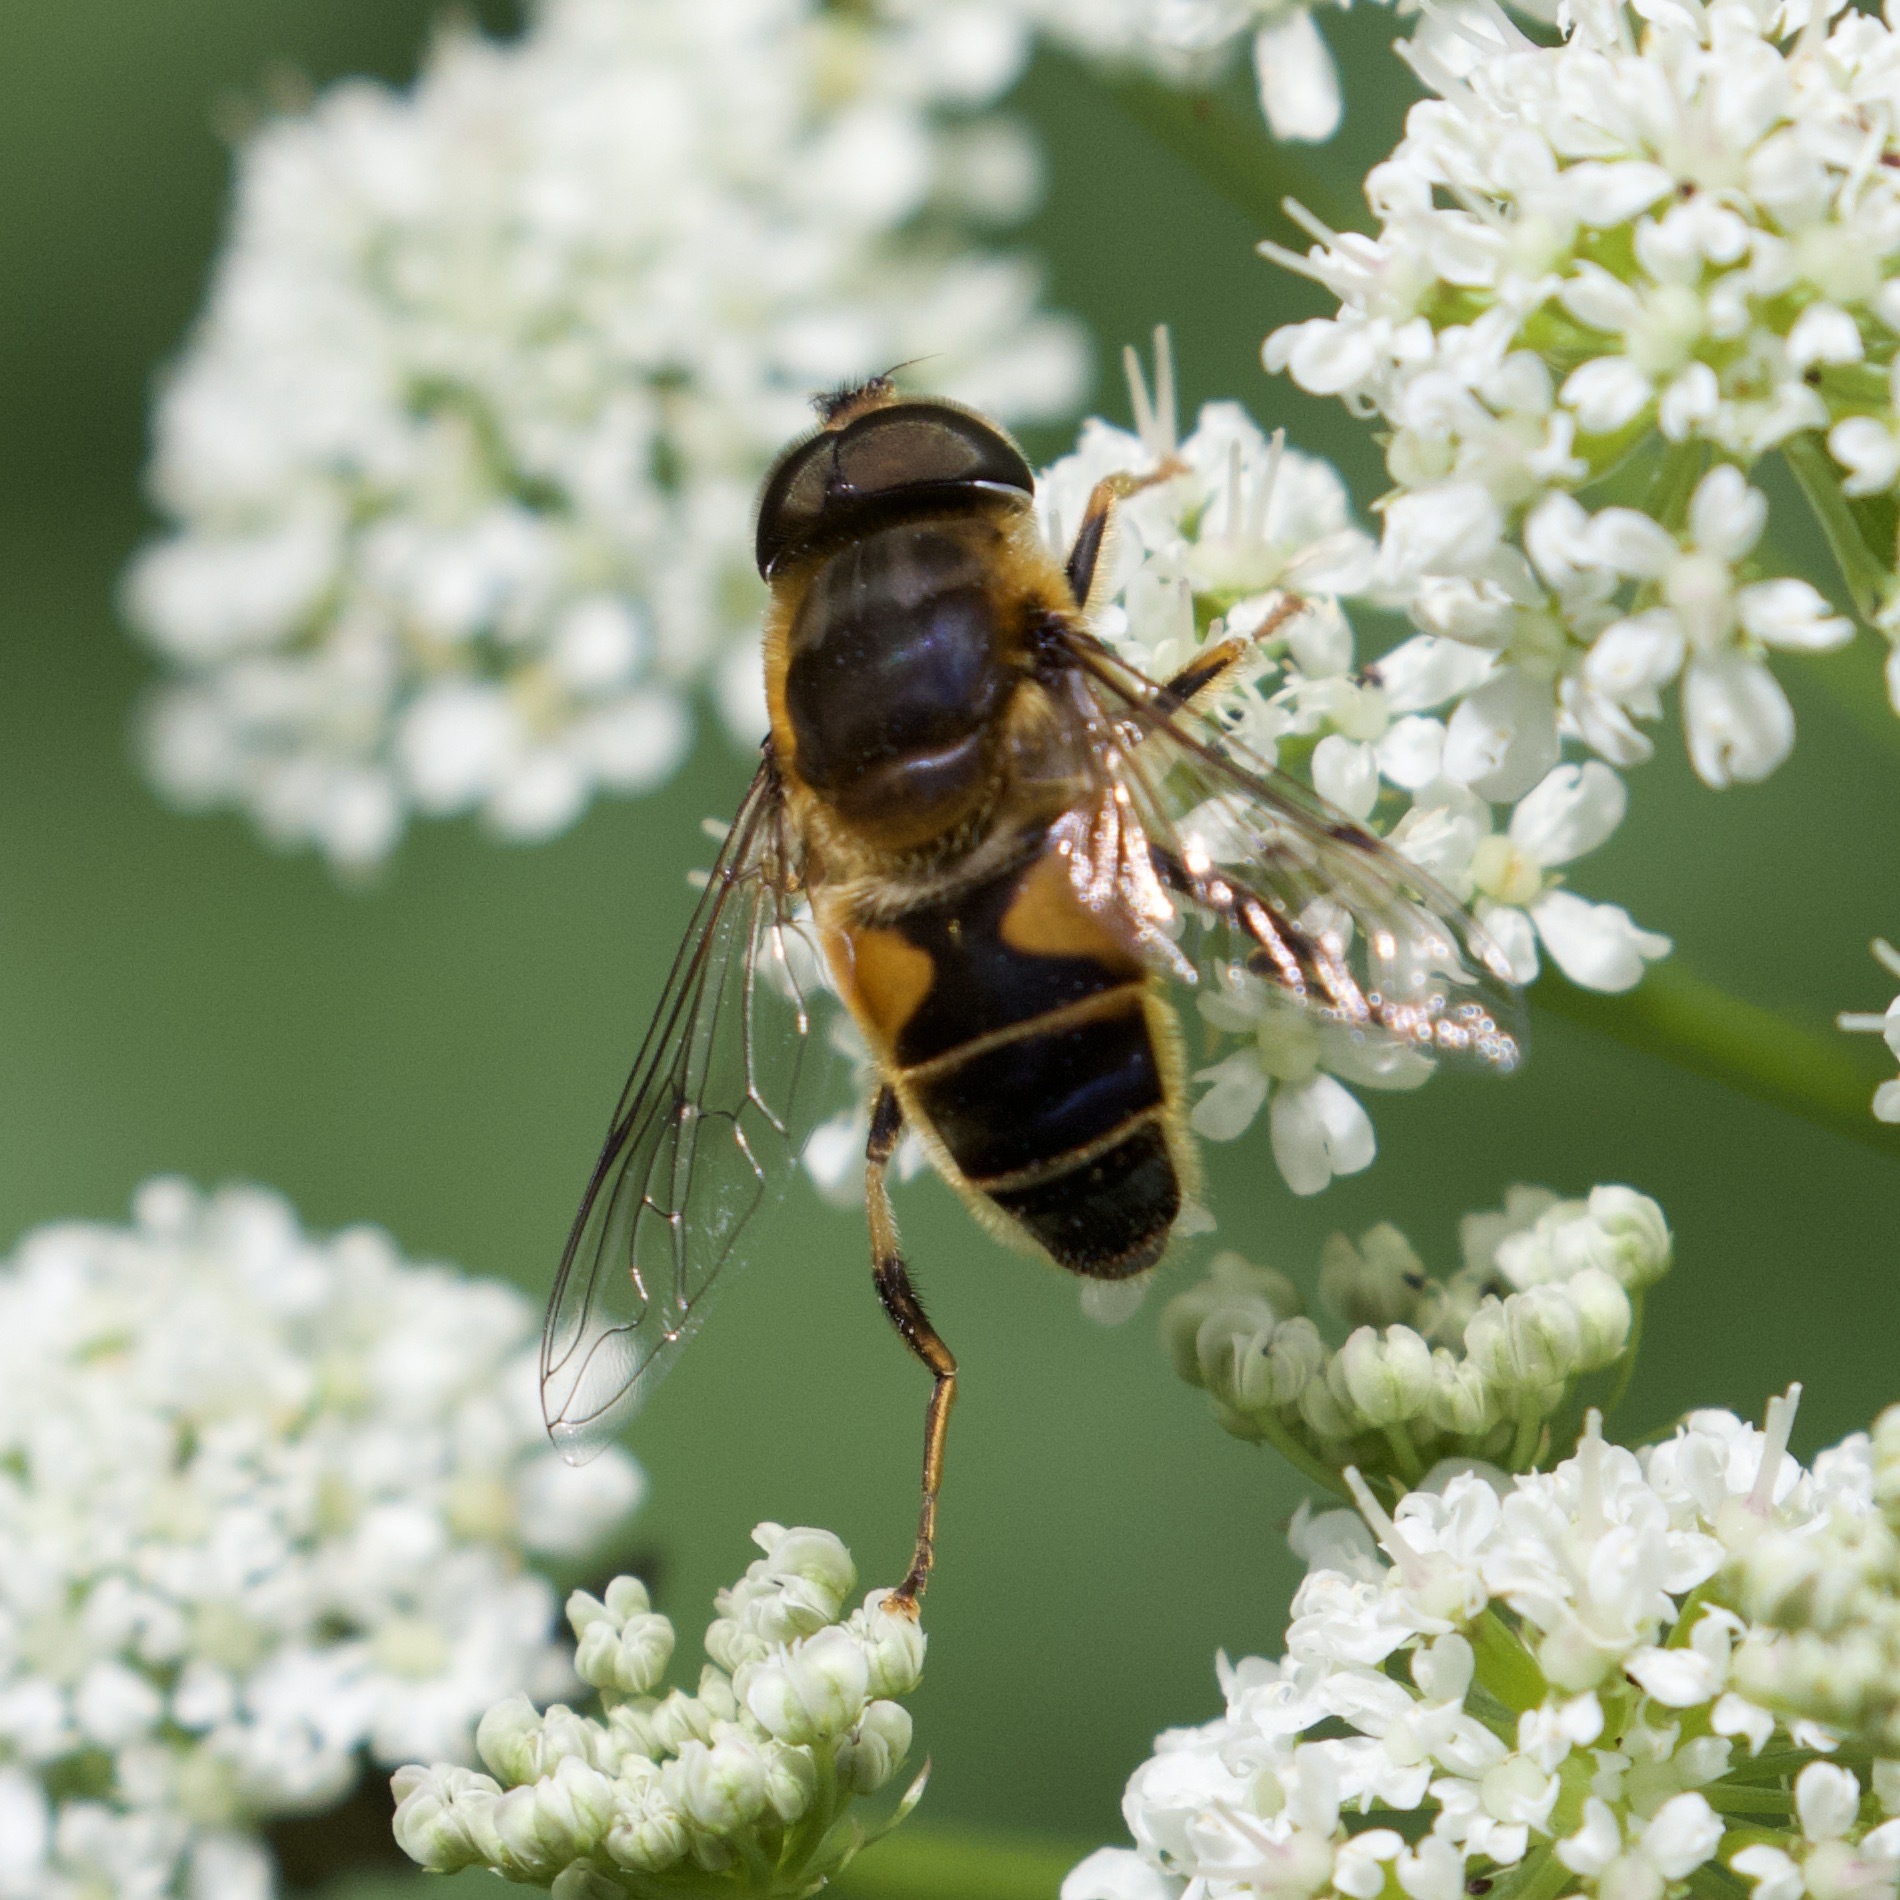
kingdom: Animalia
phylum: Arthropoda
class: Insecta
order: Diptera
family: Syrphidae
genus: Eristalis
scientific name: Eristalis pertinax
